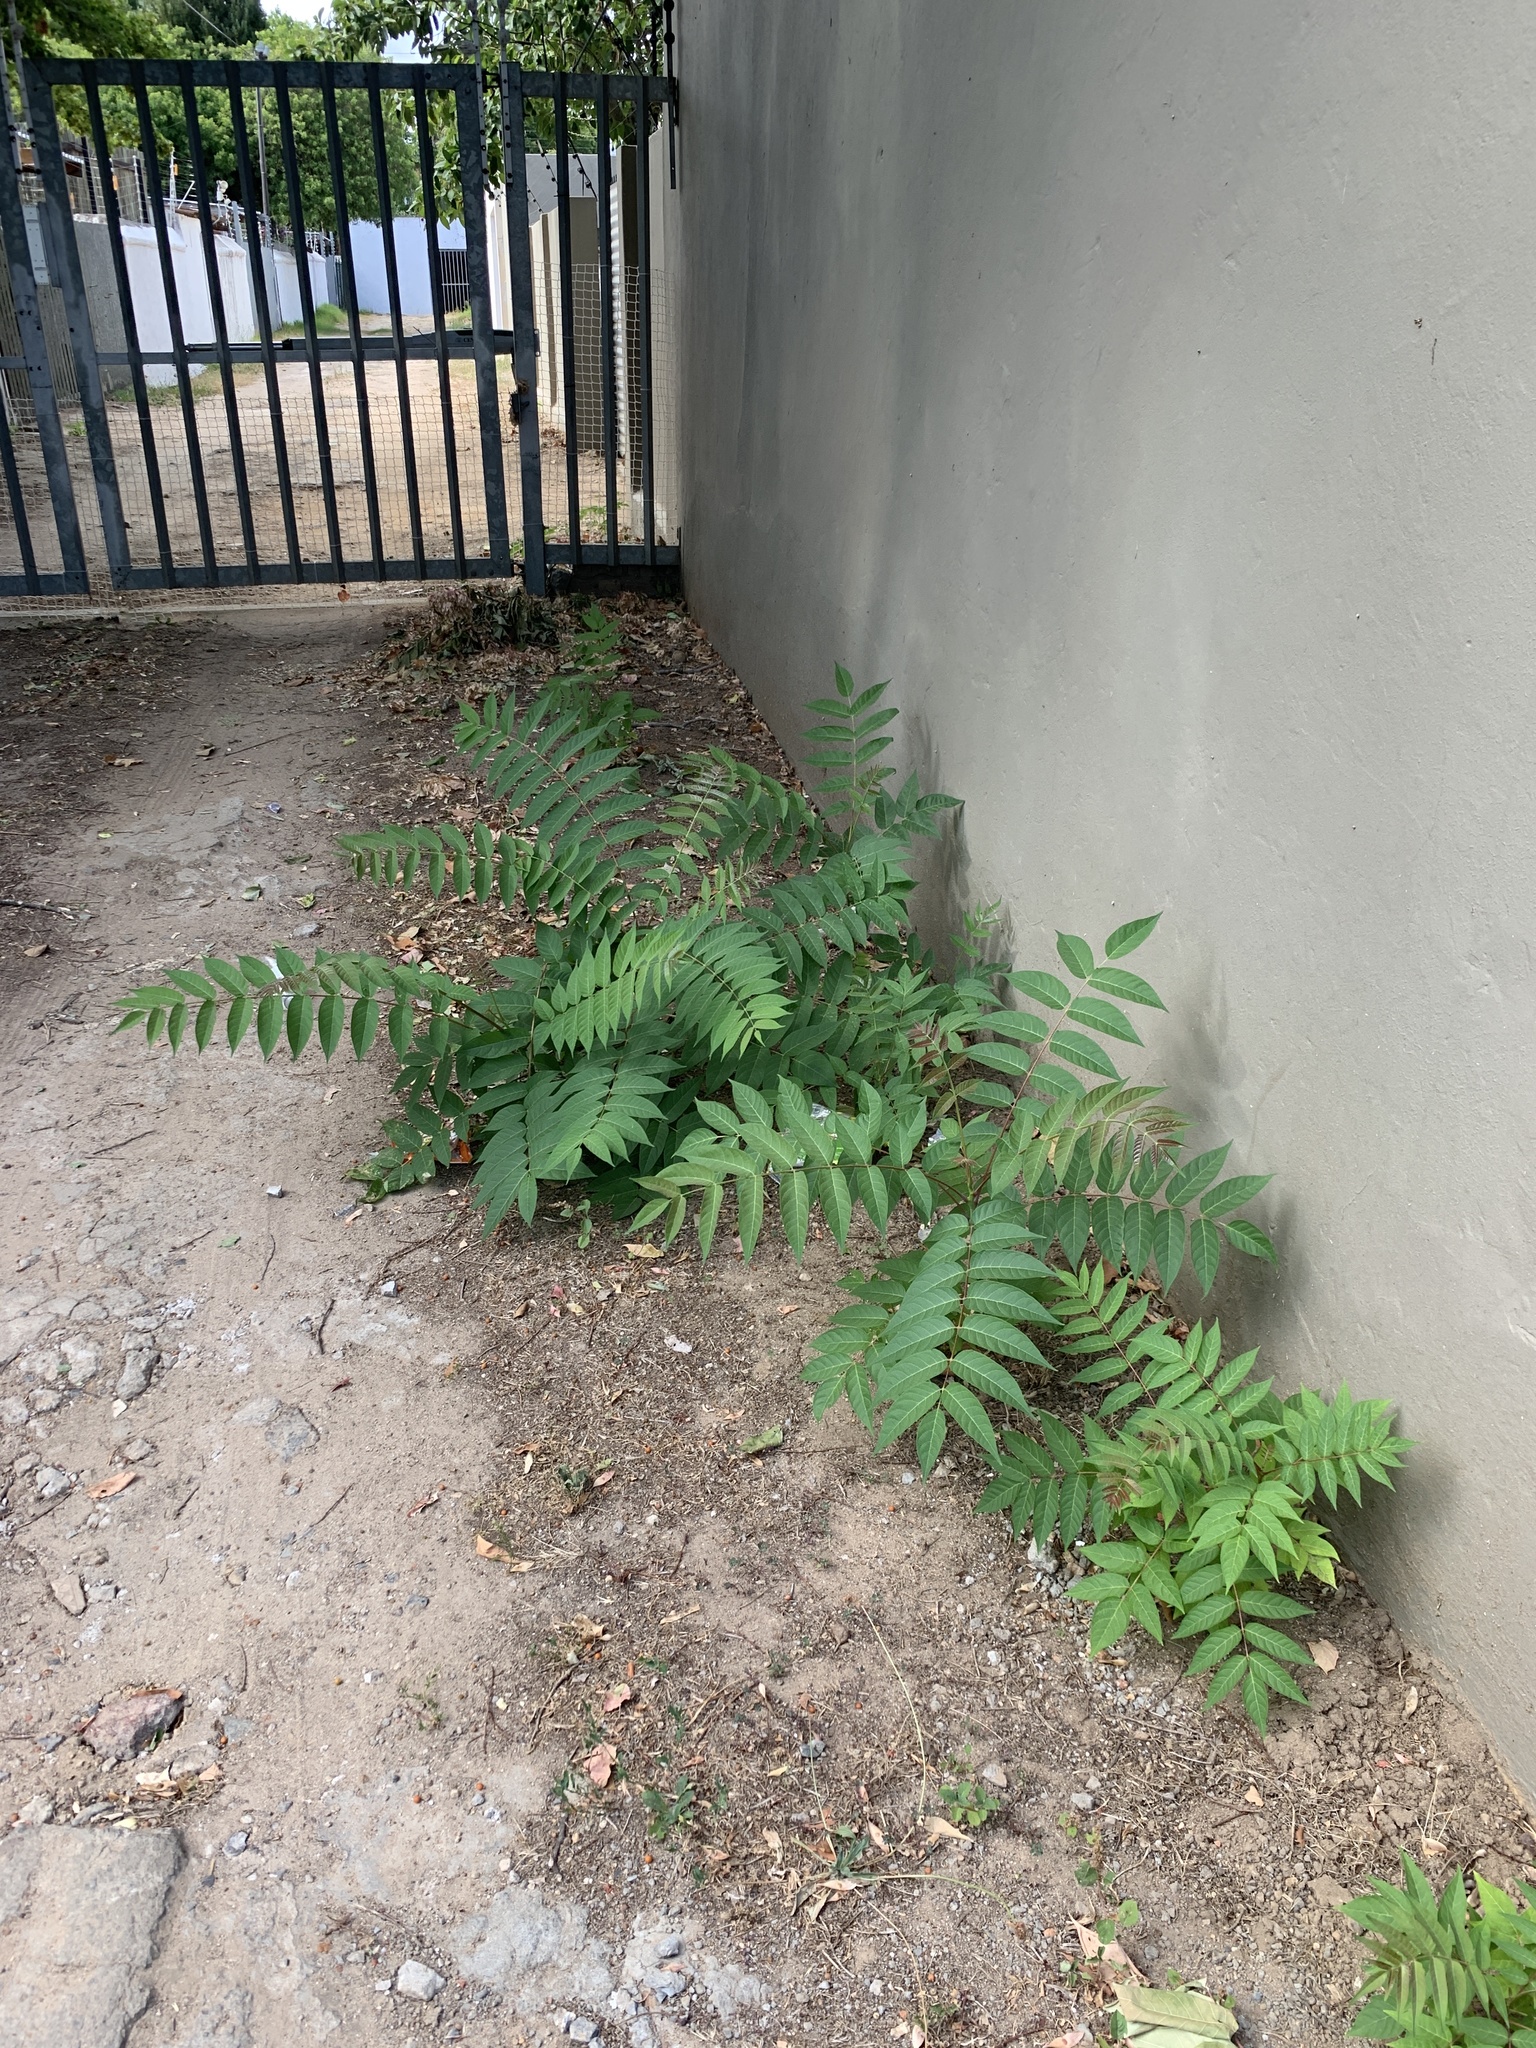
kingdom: Plantae
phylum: Tracheophyta
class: Magnoliopsida
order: Sapindales
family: Simaroubaceae
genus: Ailanthus
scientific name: Ailanthus altissima
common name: Tree-of-heaven
